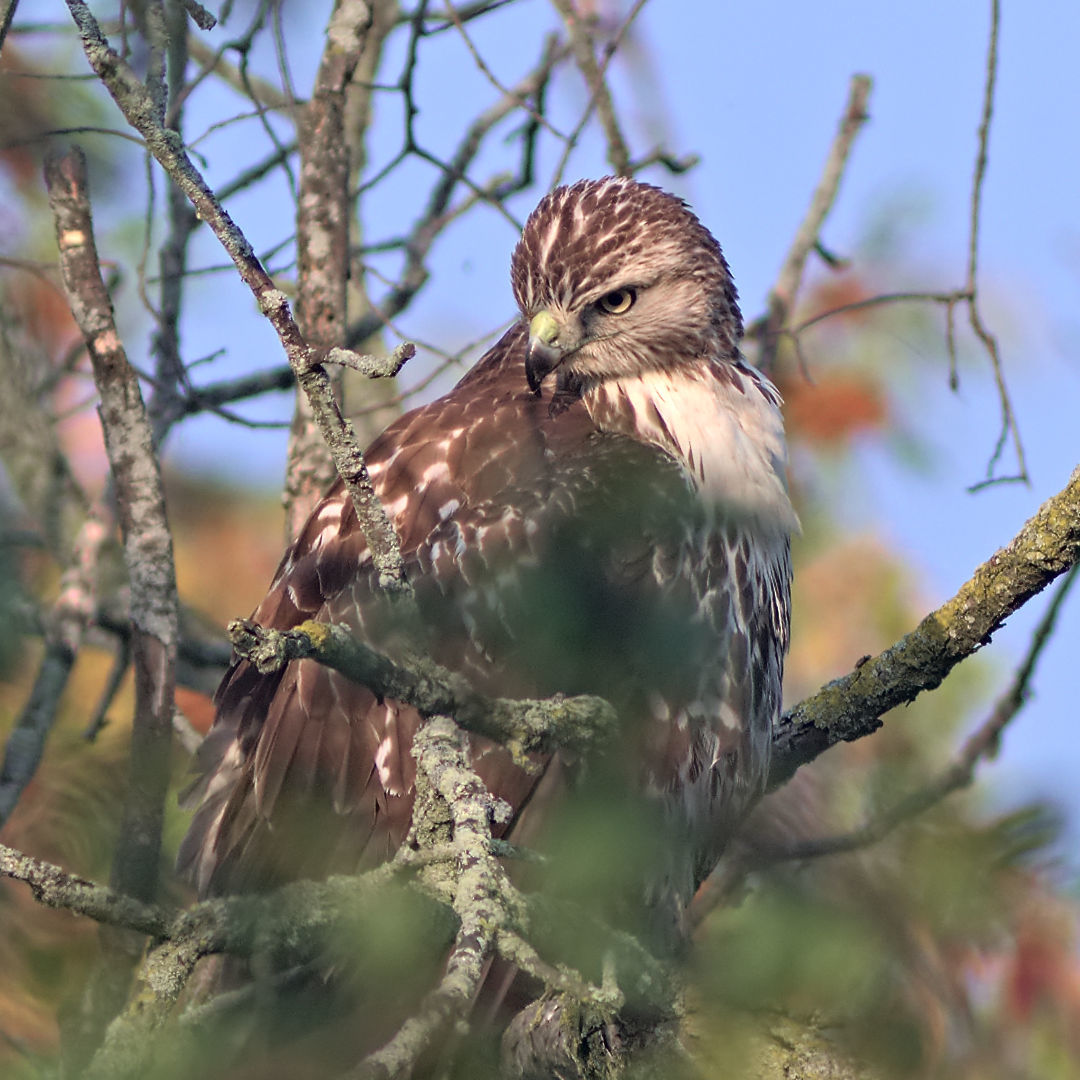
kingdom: Animalia
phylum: Chordata
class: Aves
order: Accipitriformes
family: Accipitridae
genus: Buteo
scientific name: Buteo jamaicensis
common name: Red-tailed hawk
